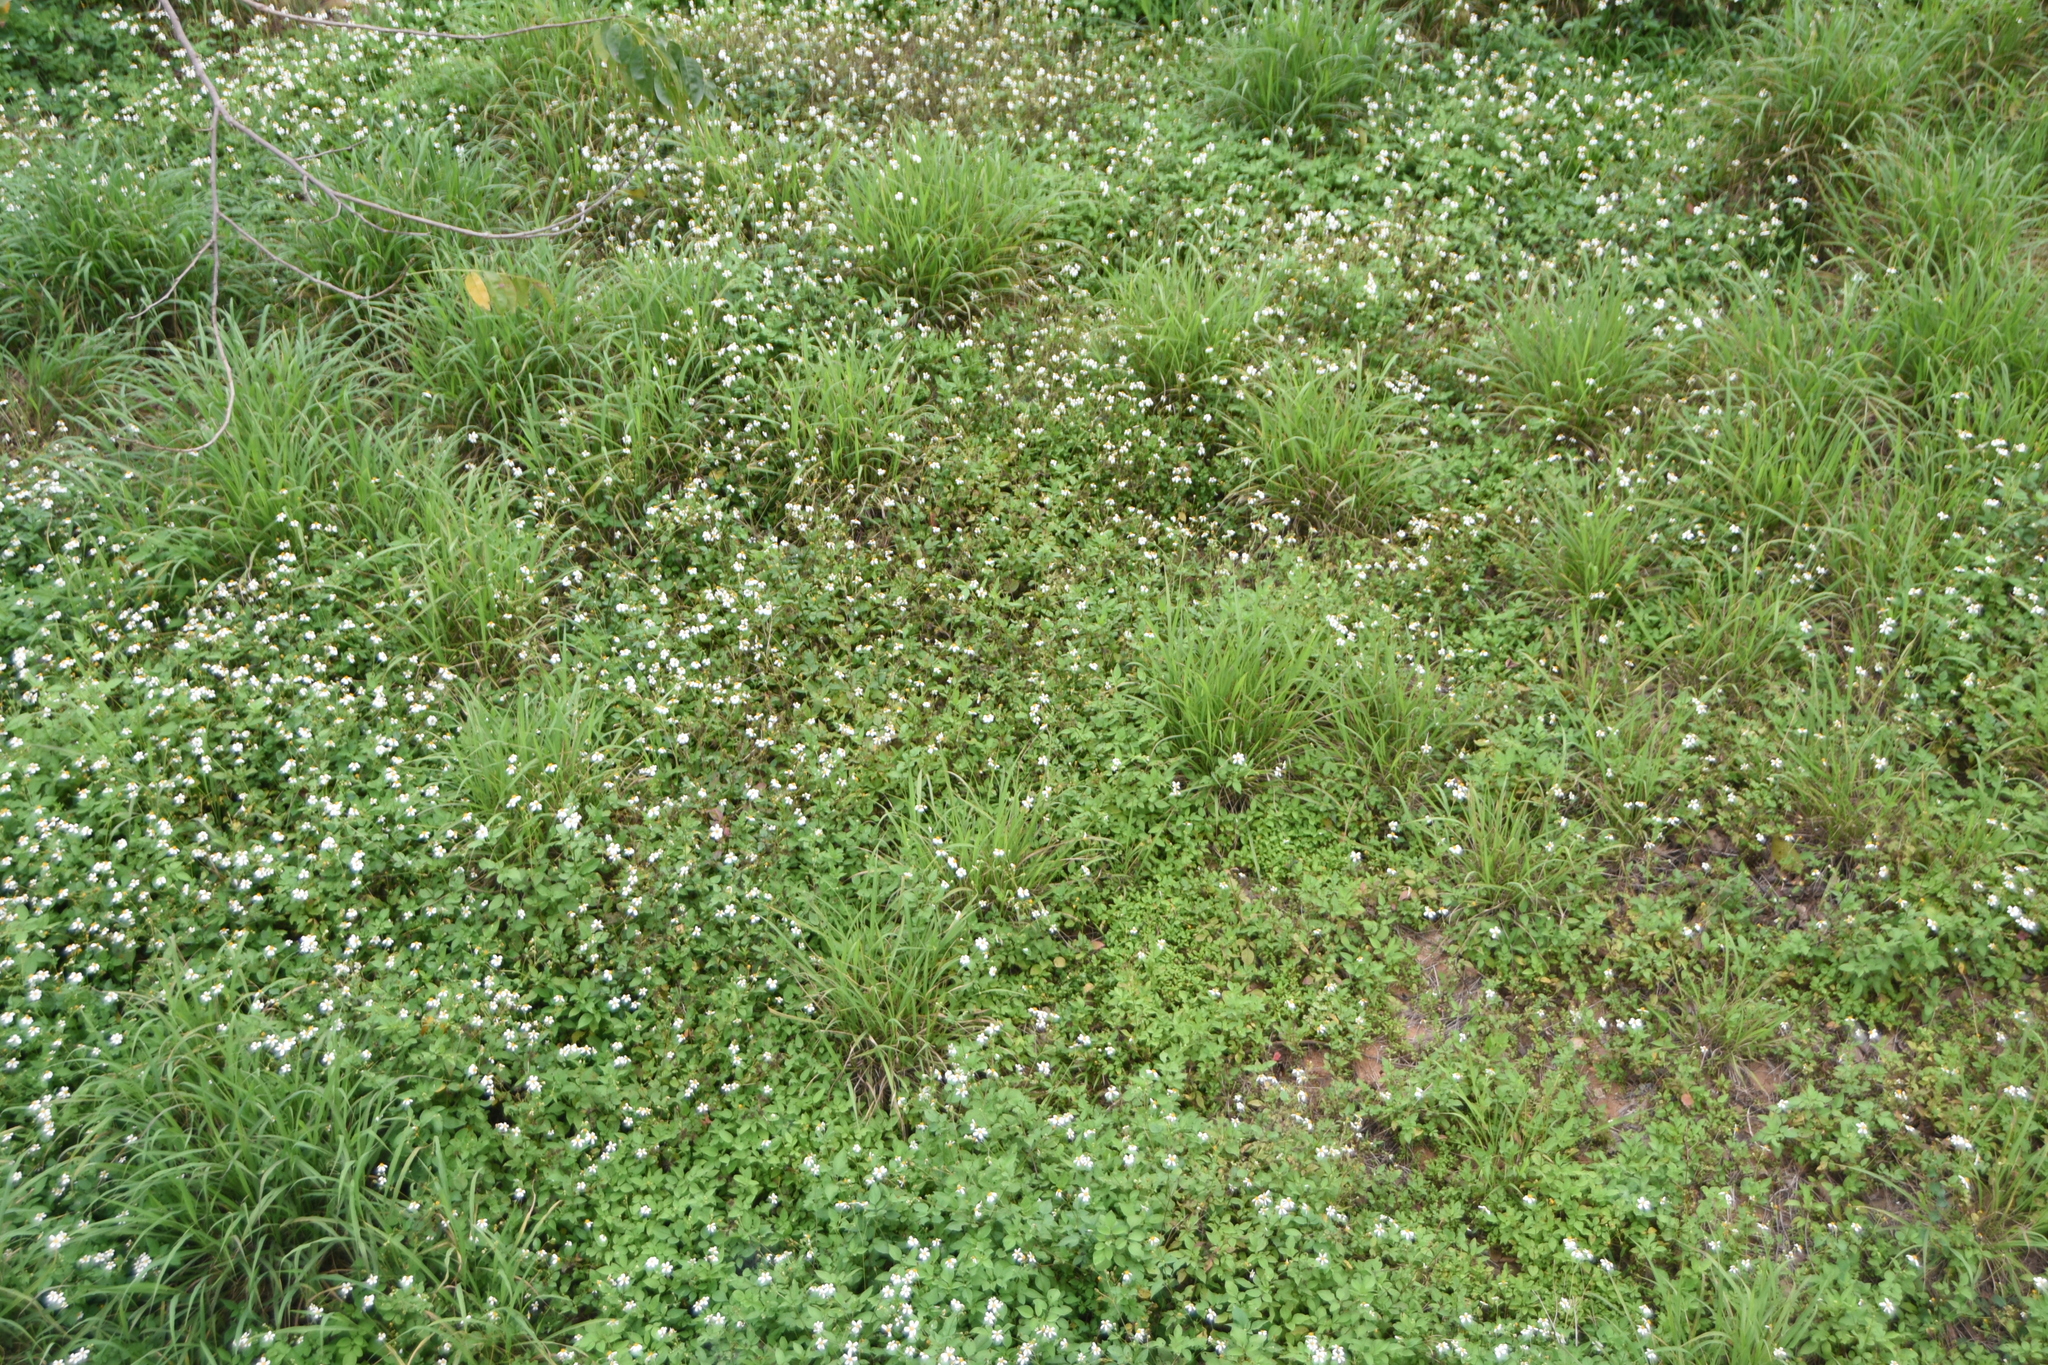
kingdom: Plantae
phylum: Tracheophyta
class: Magnoliopsida
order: Asterales
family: Asteraceae
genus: Bidens
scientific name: Bidens alba
